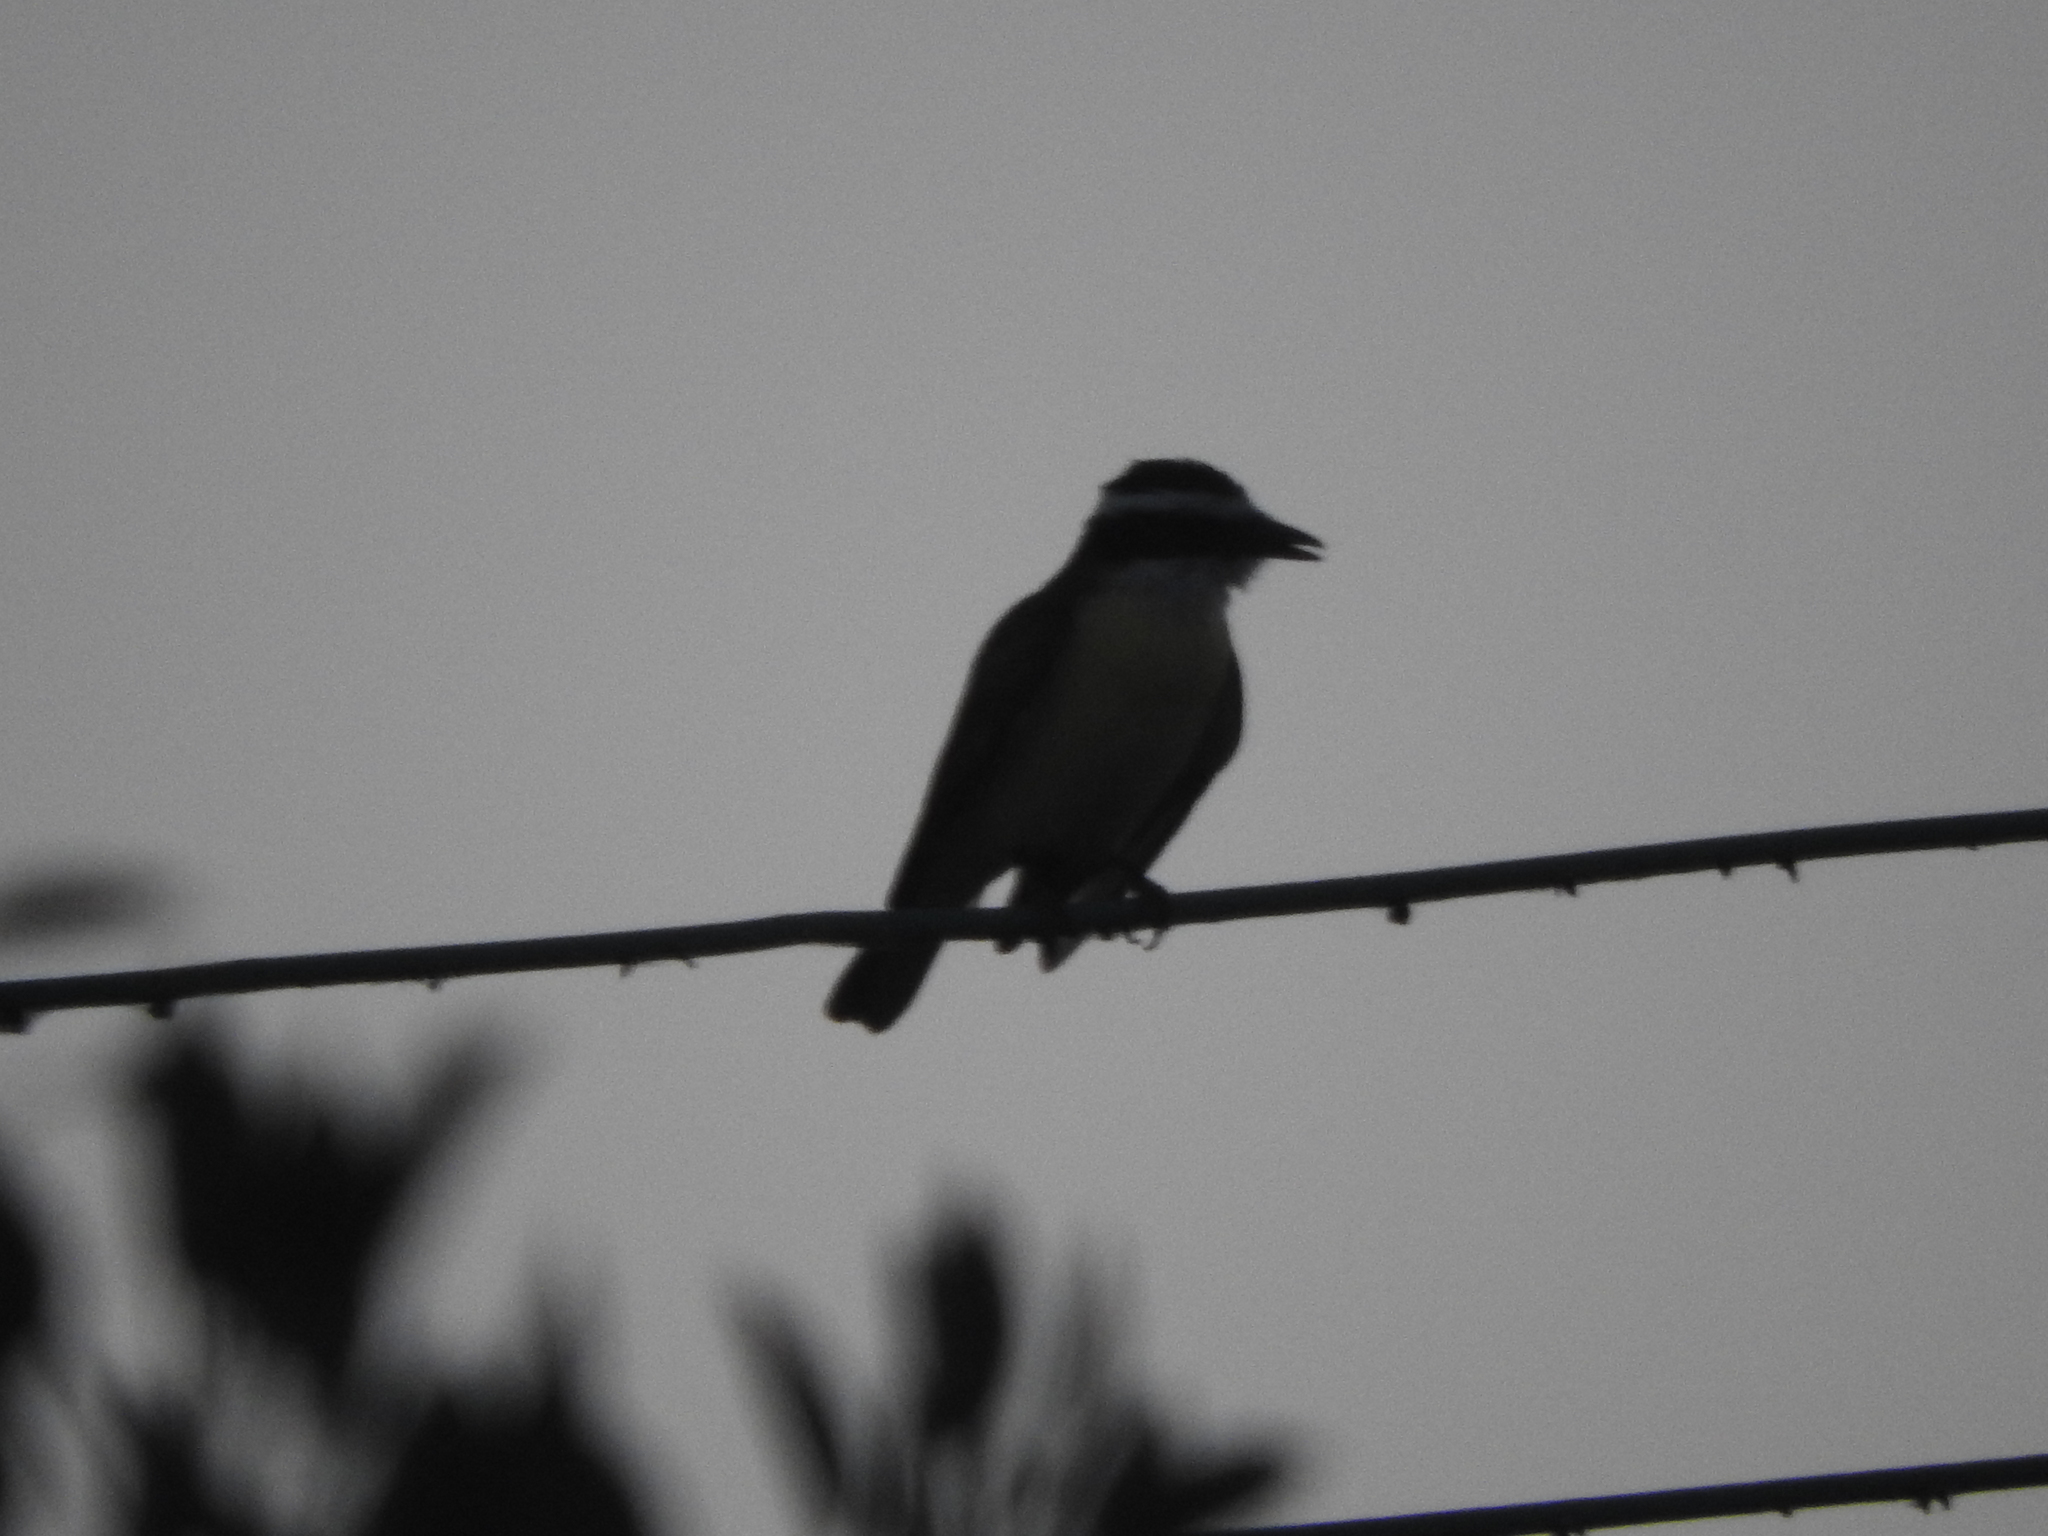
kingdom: Animalia
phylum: Chordata
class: Aves
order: Passeriformes
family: Tyrannidae
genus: Pitangus
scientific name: Pitangus sulphuratus
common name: Great kiskadee
